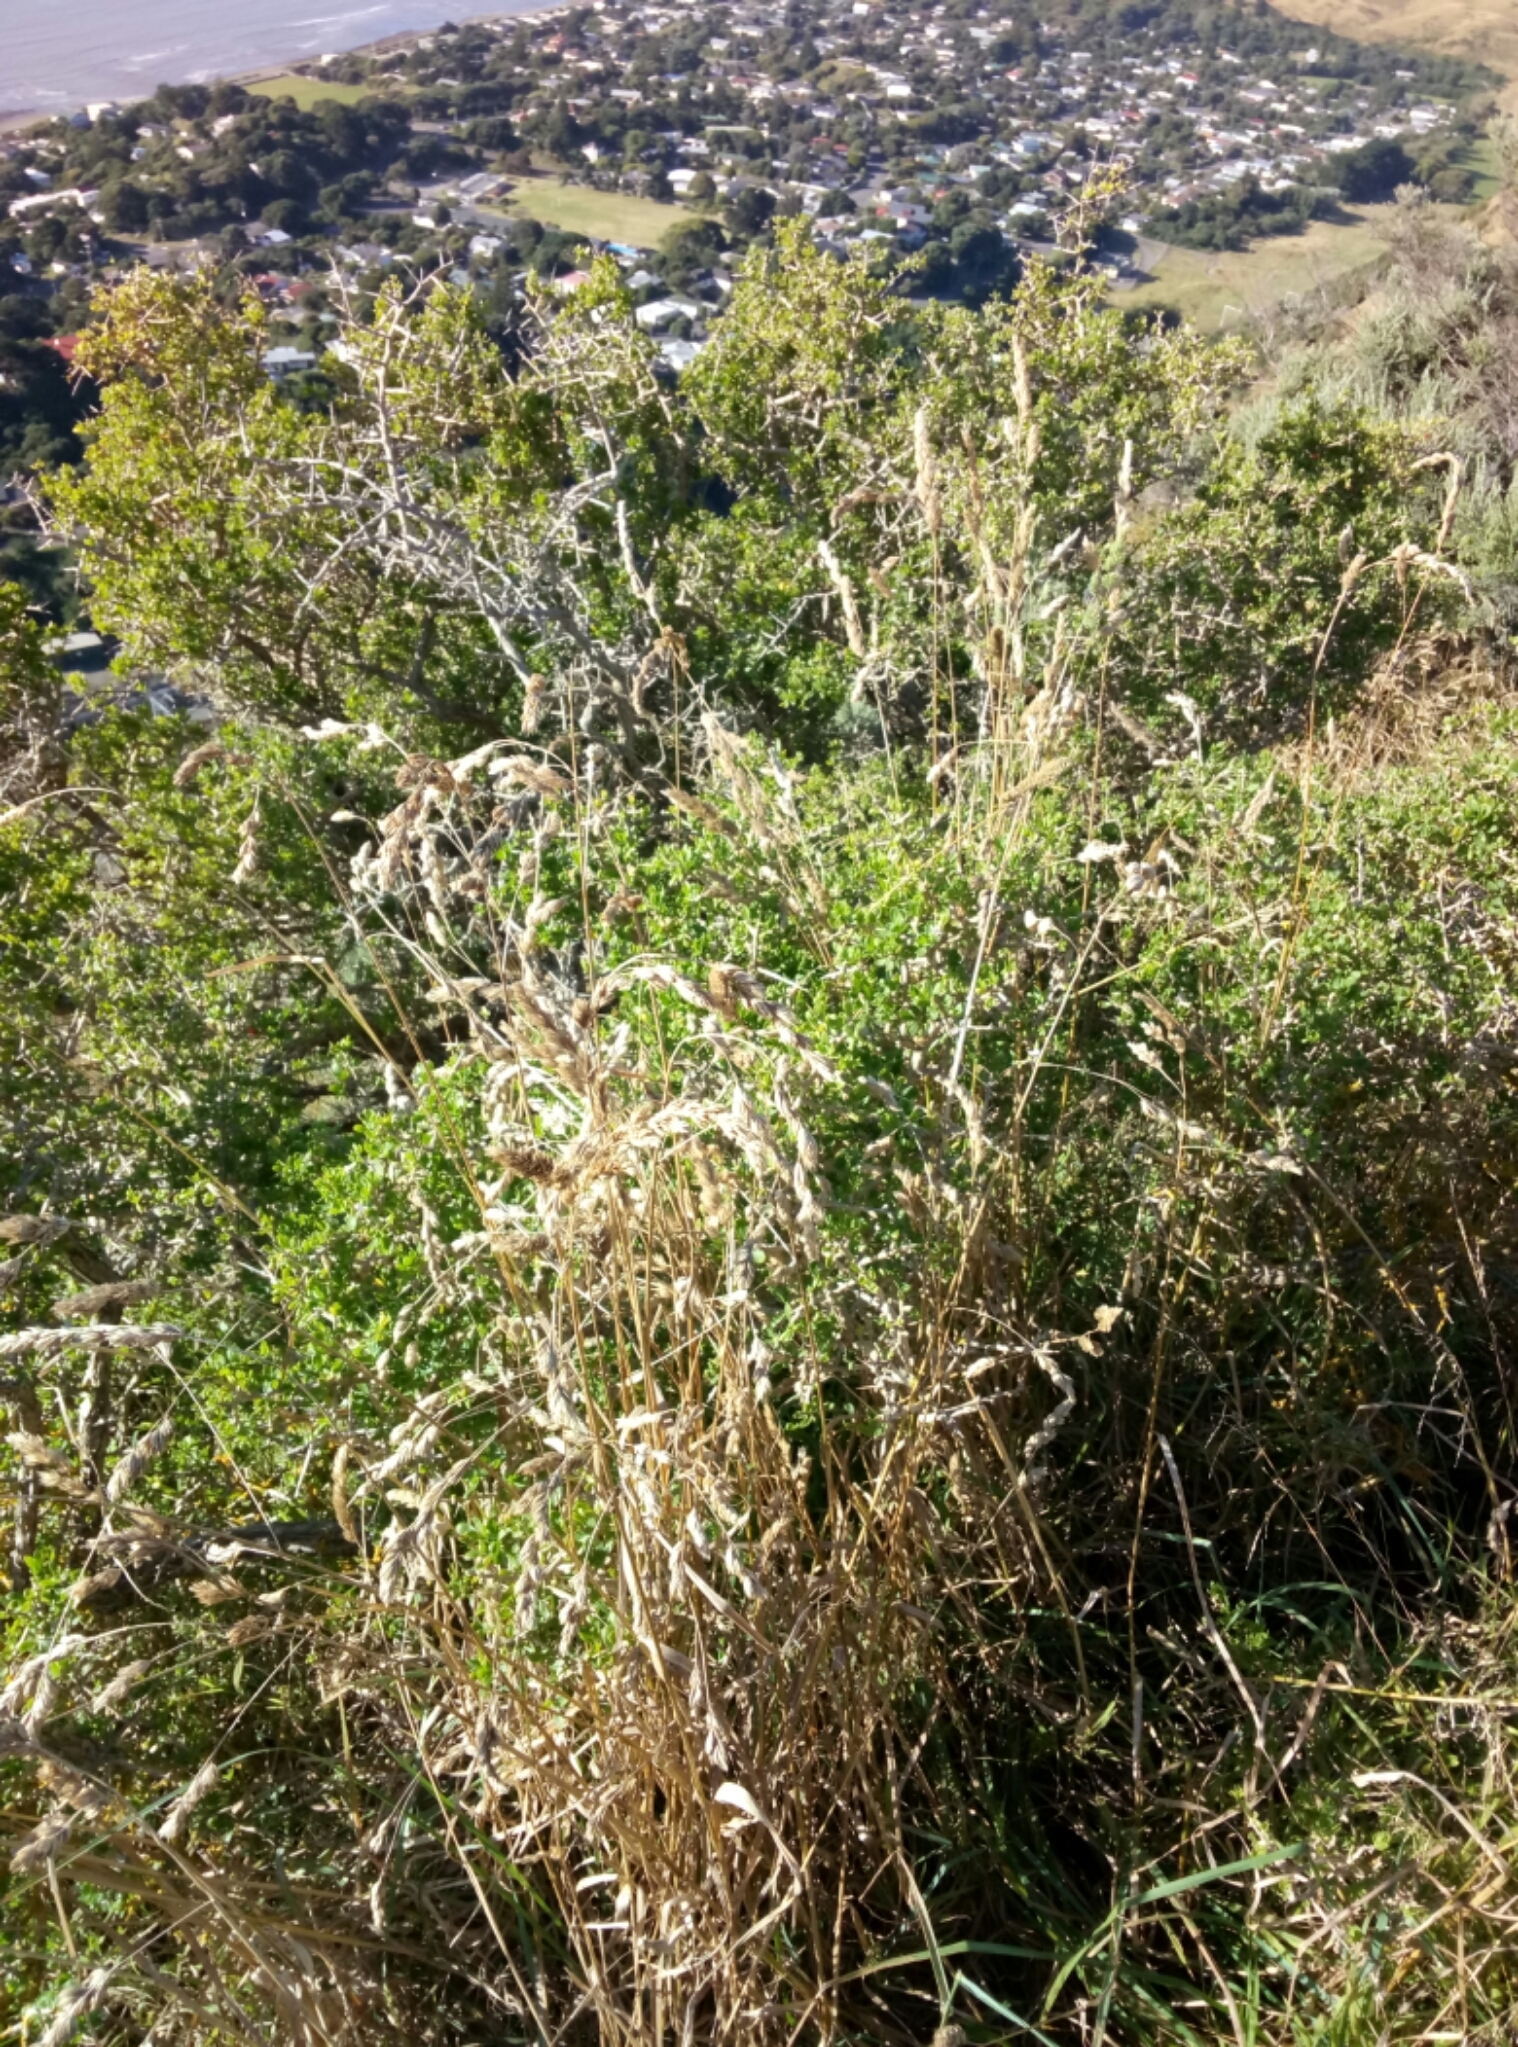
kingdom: Plantae
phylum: Tracheophyta
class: Magnoliopsida
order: Solanales
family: Solanaceae
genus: Lycium
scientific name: Lycium ferocissimum
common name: African boxthorn
